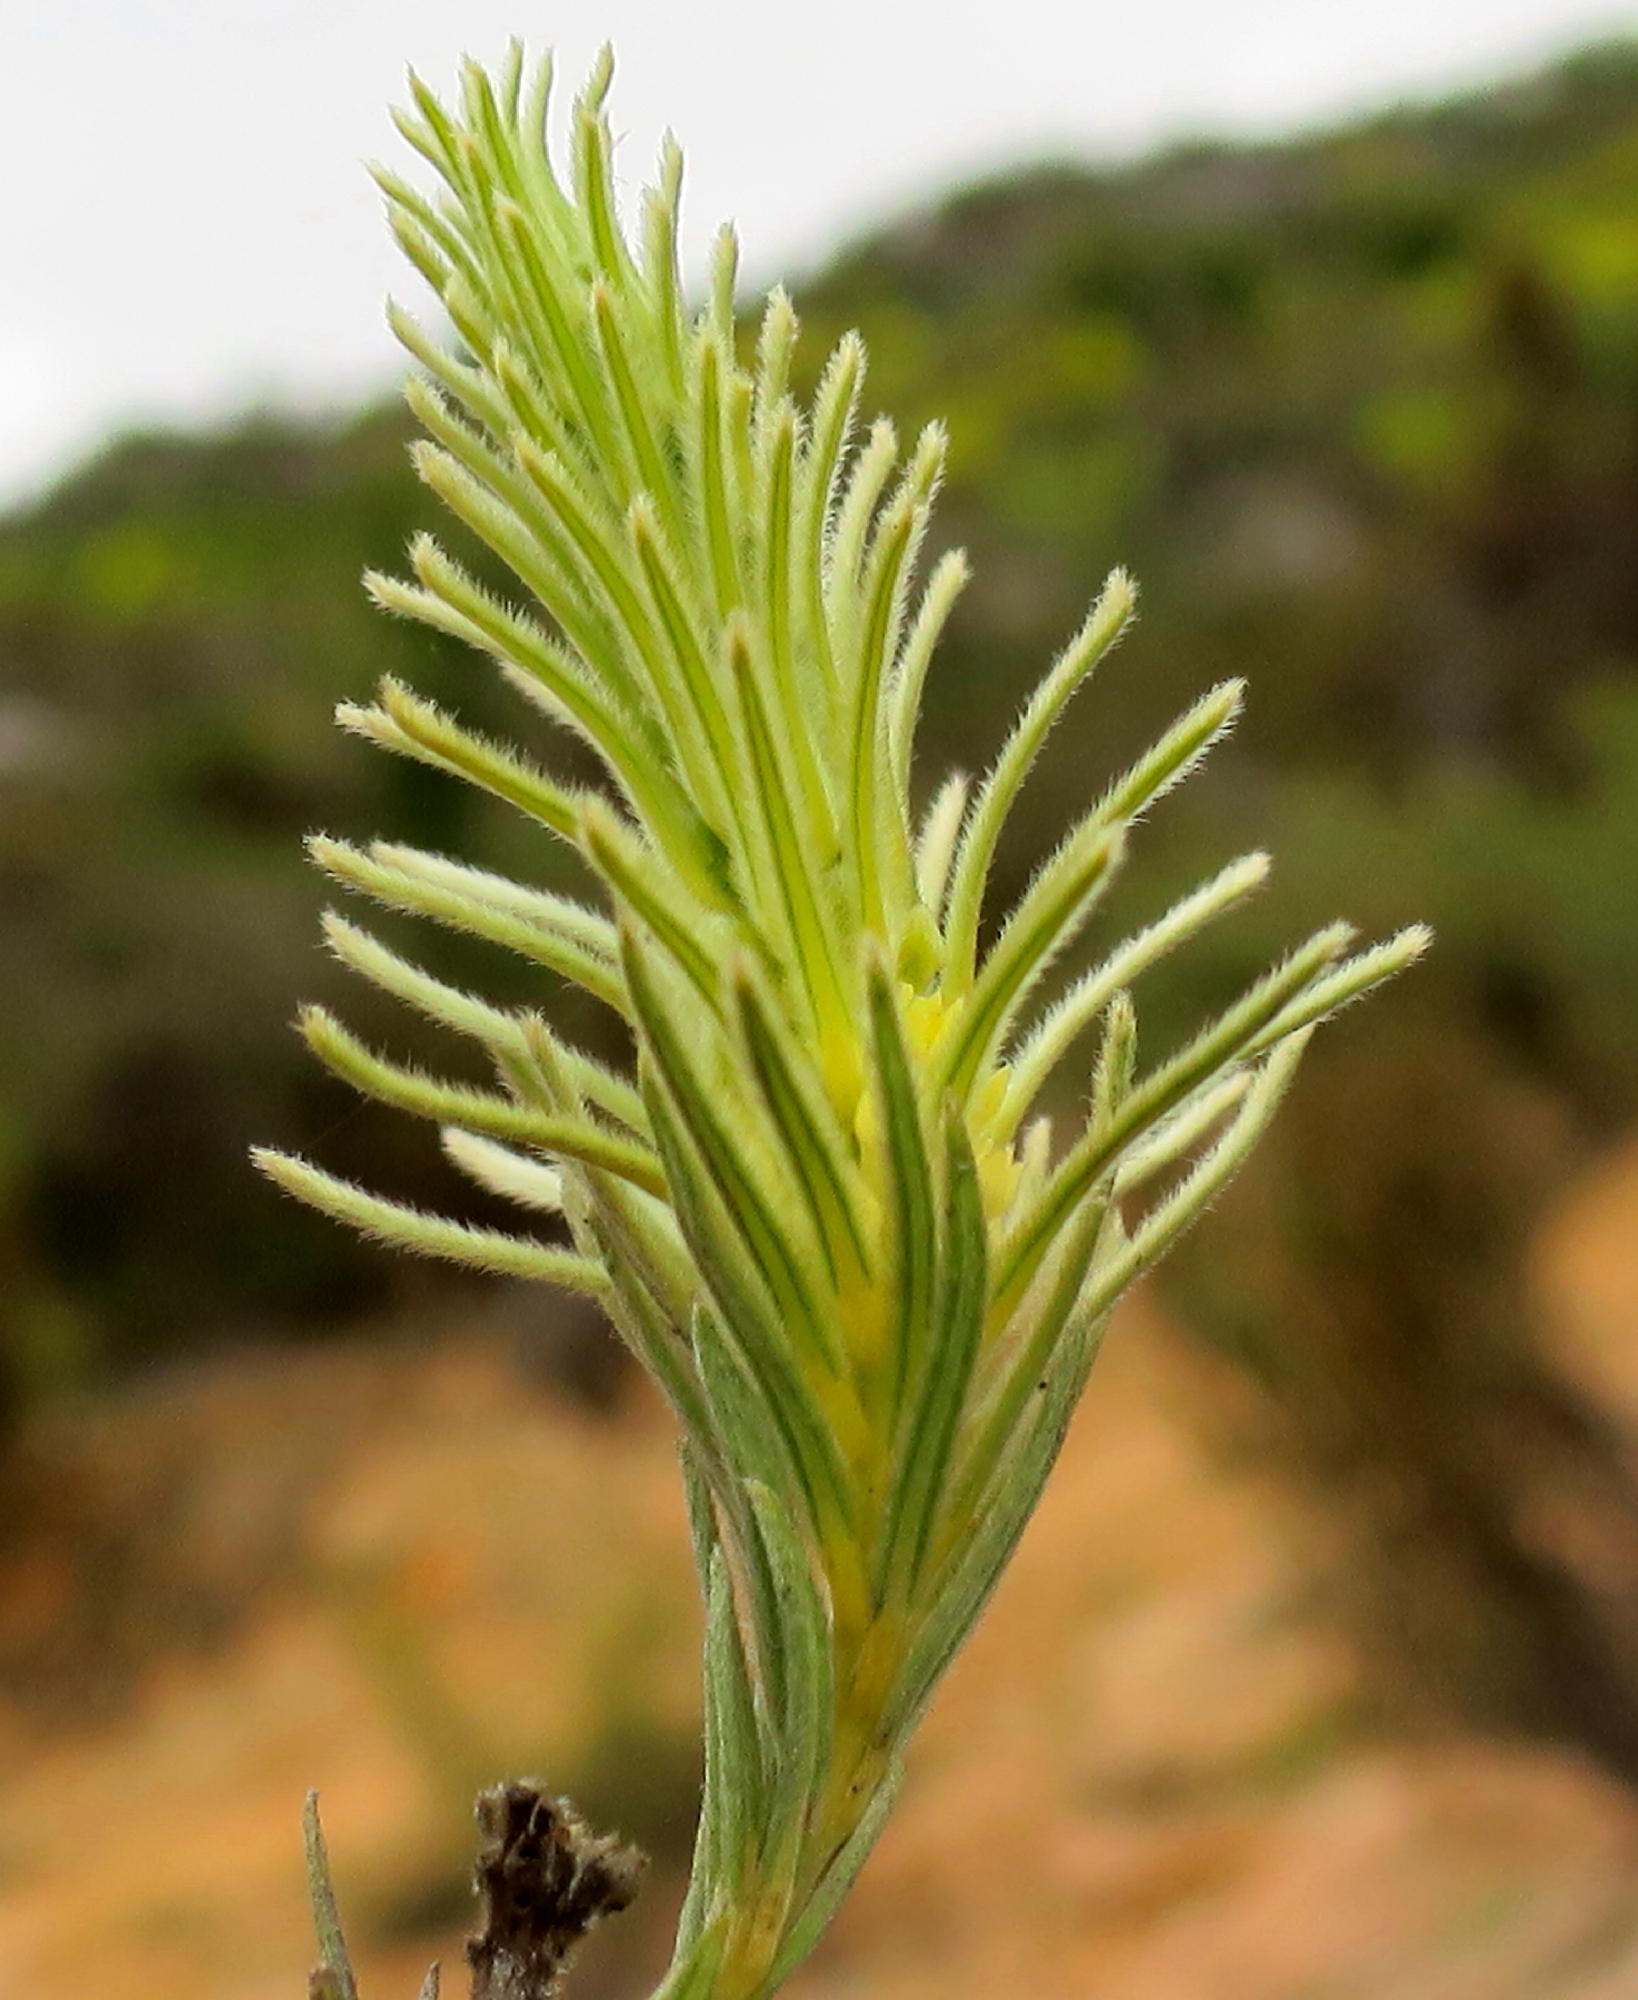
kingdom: Plantae
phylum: Tracheophyta
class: Magnoliopsida
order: Rosales
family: Rhamnaceae
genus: Phylica
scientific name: Phylica velutina
